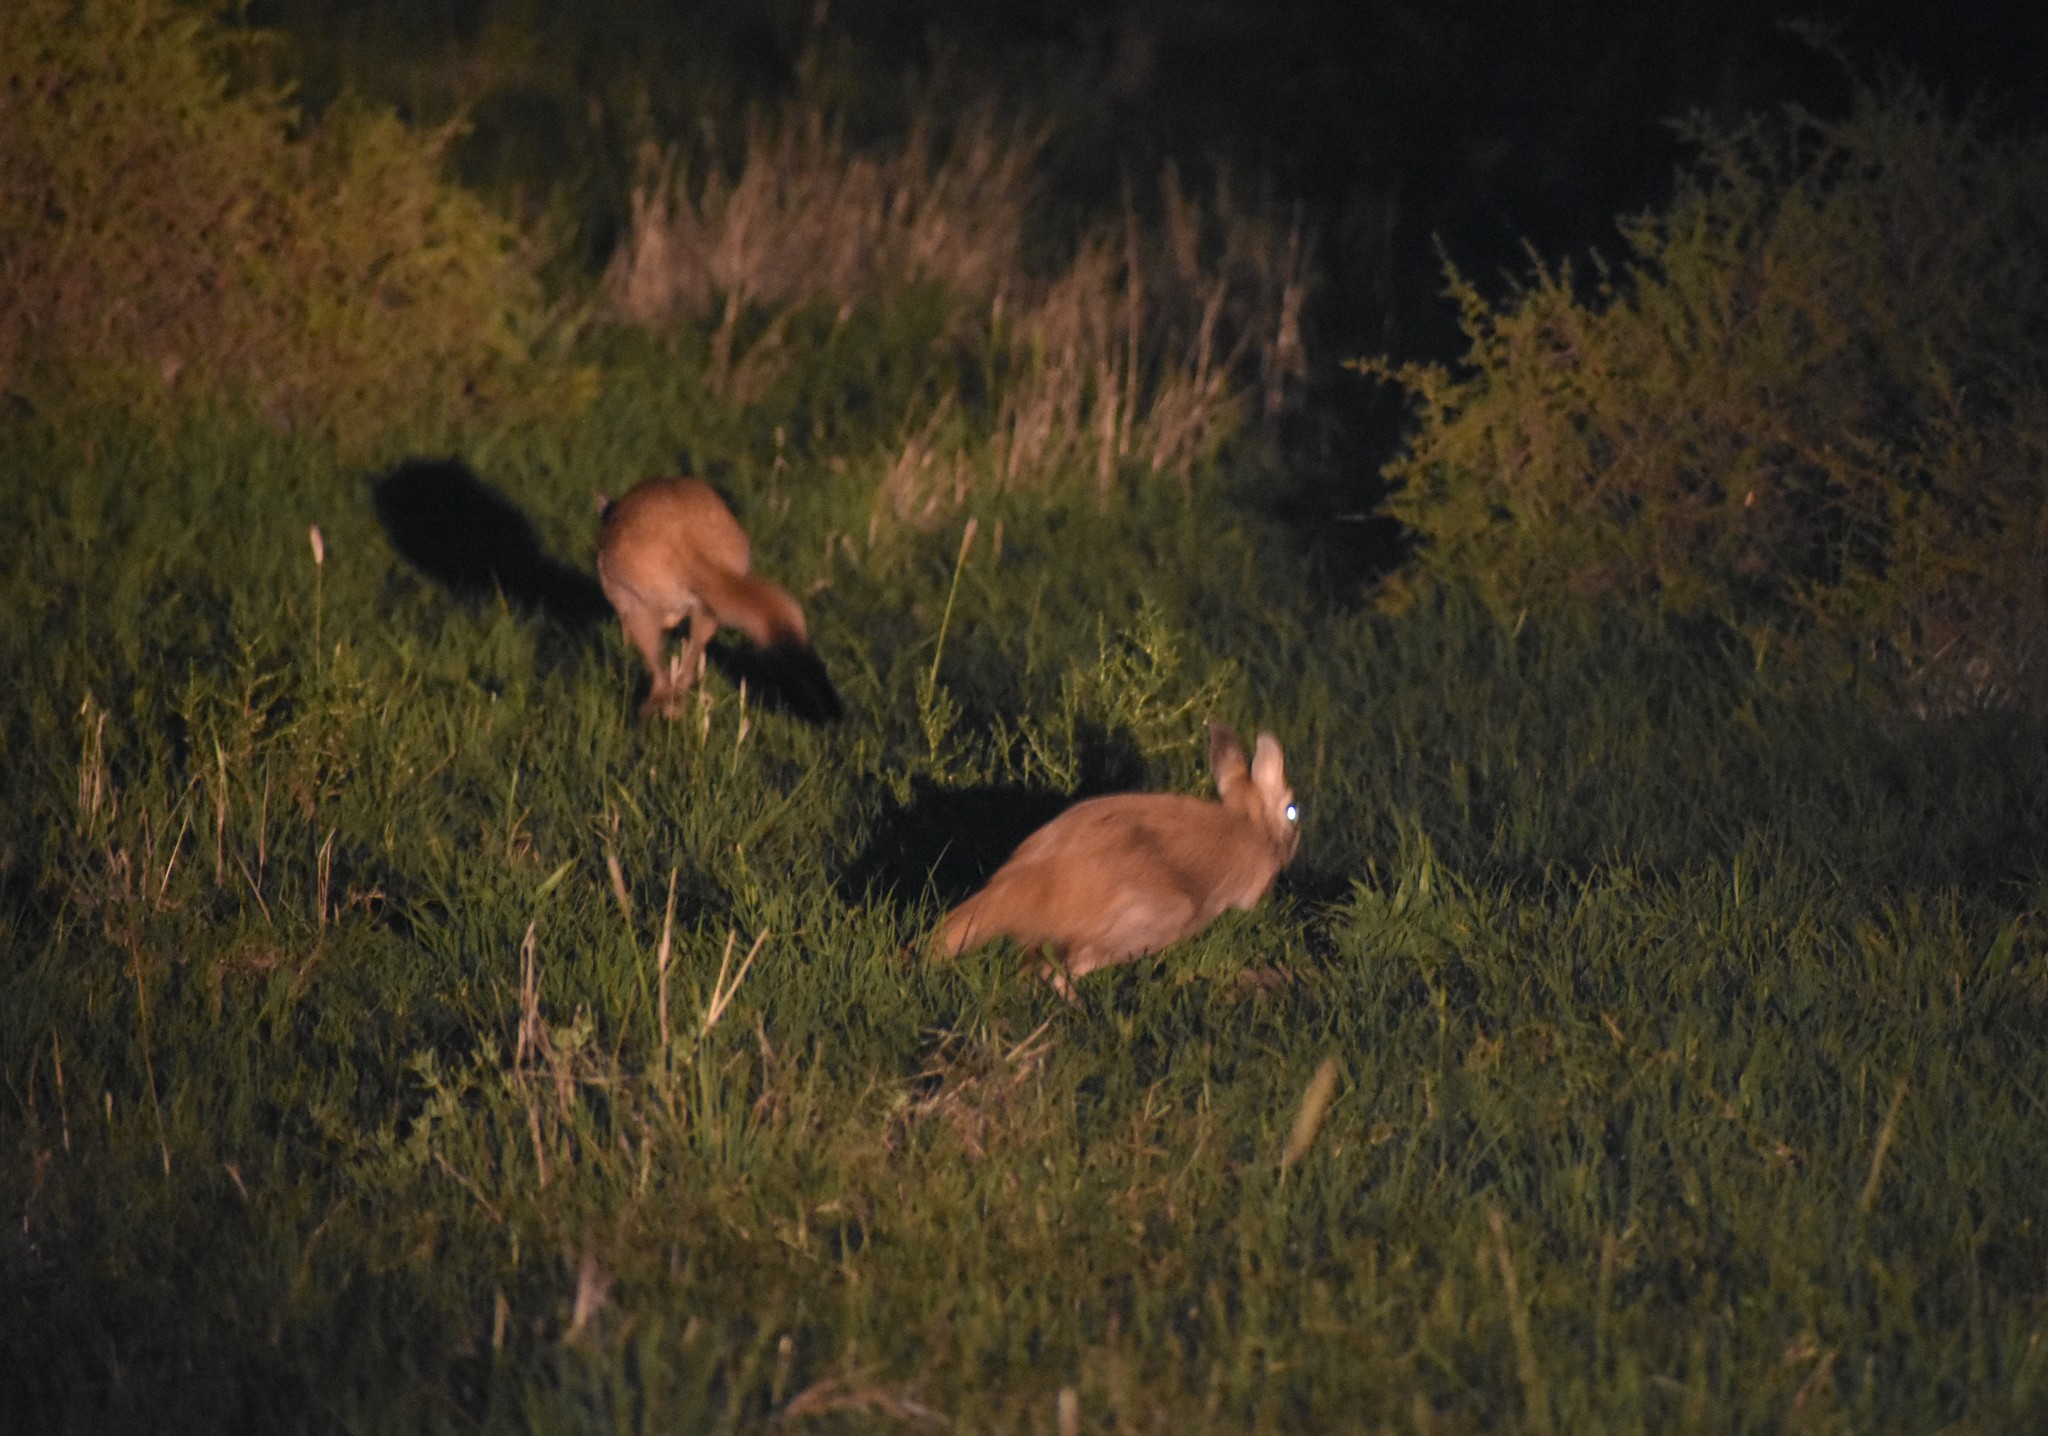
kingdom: Animalia
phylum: Chordata
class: Mammalia
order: Rodentia
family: Pedetidae
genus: Pedetes
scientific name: Pedetes capensis
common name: South african spring hare
